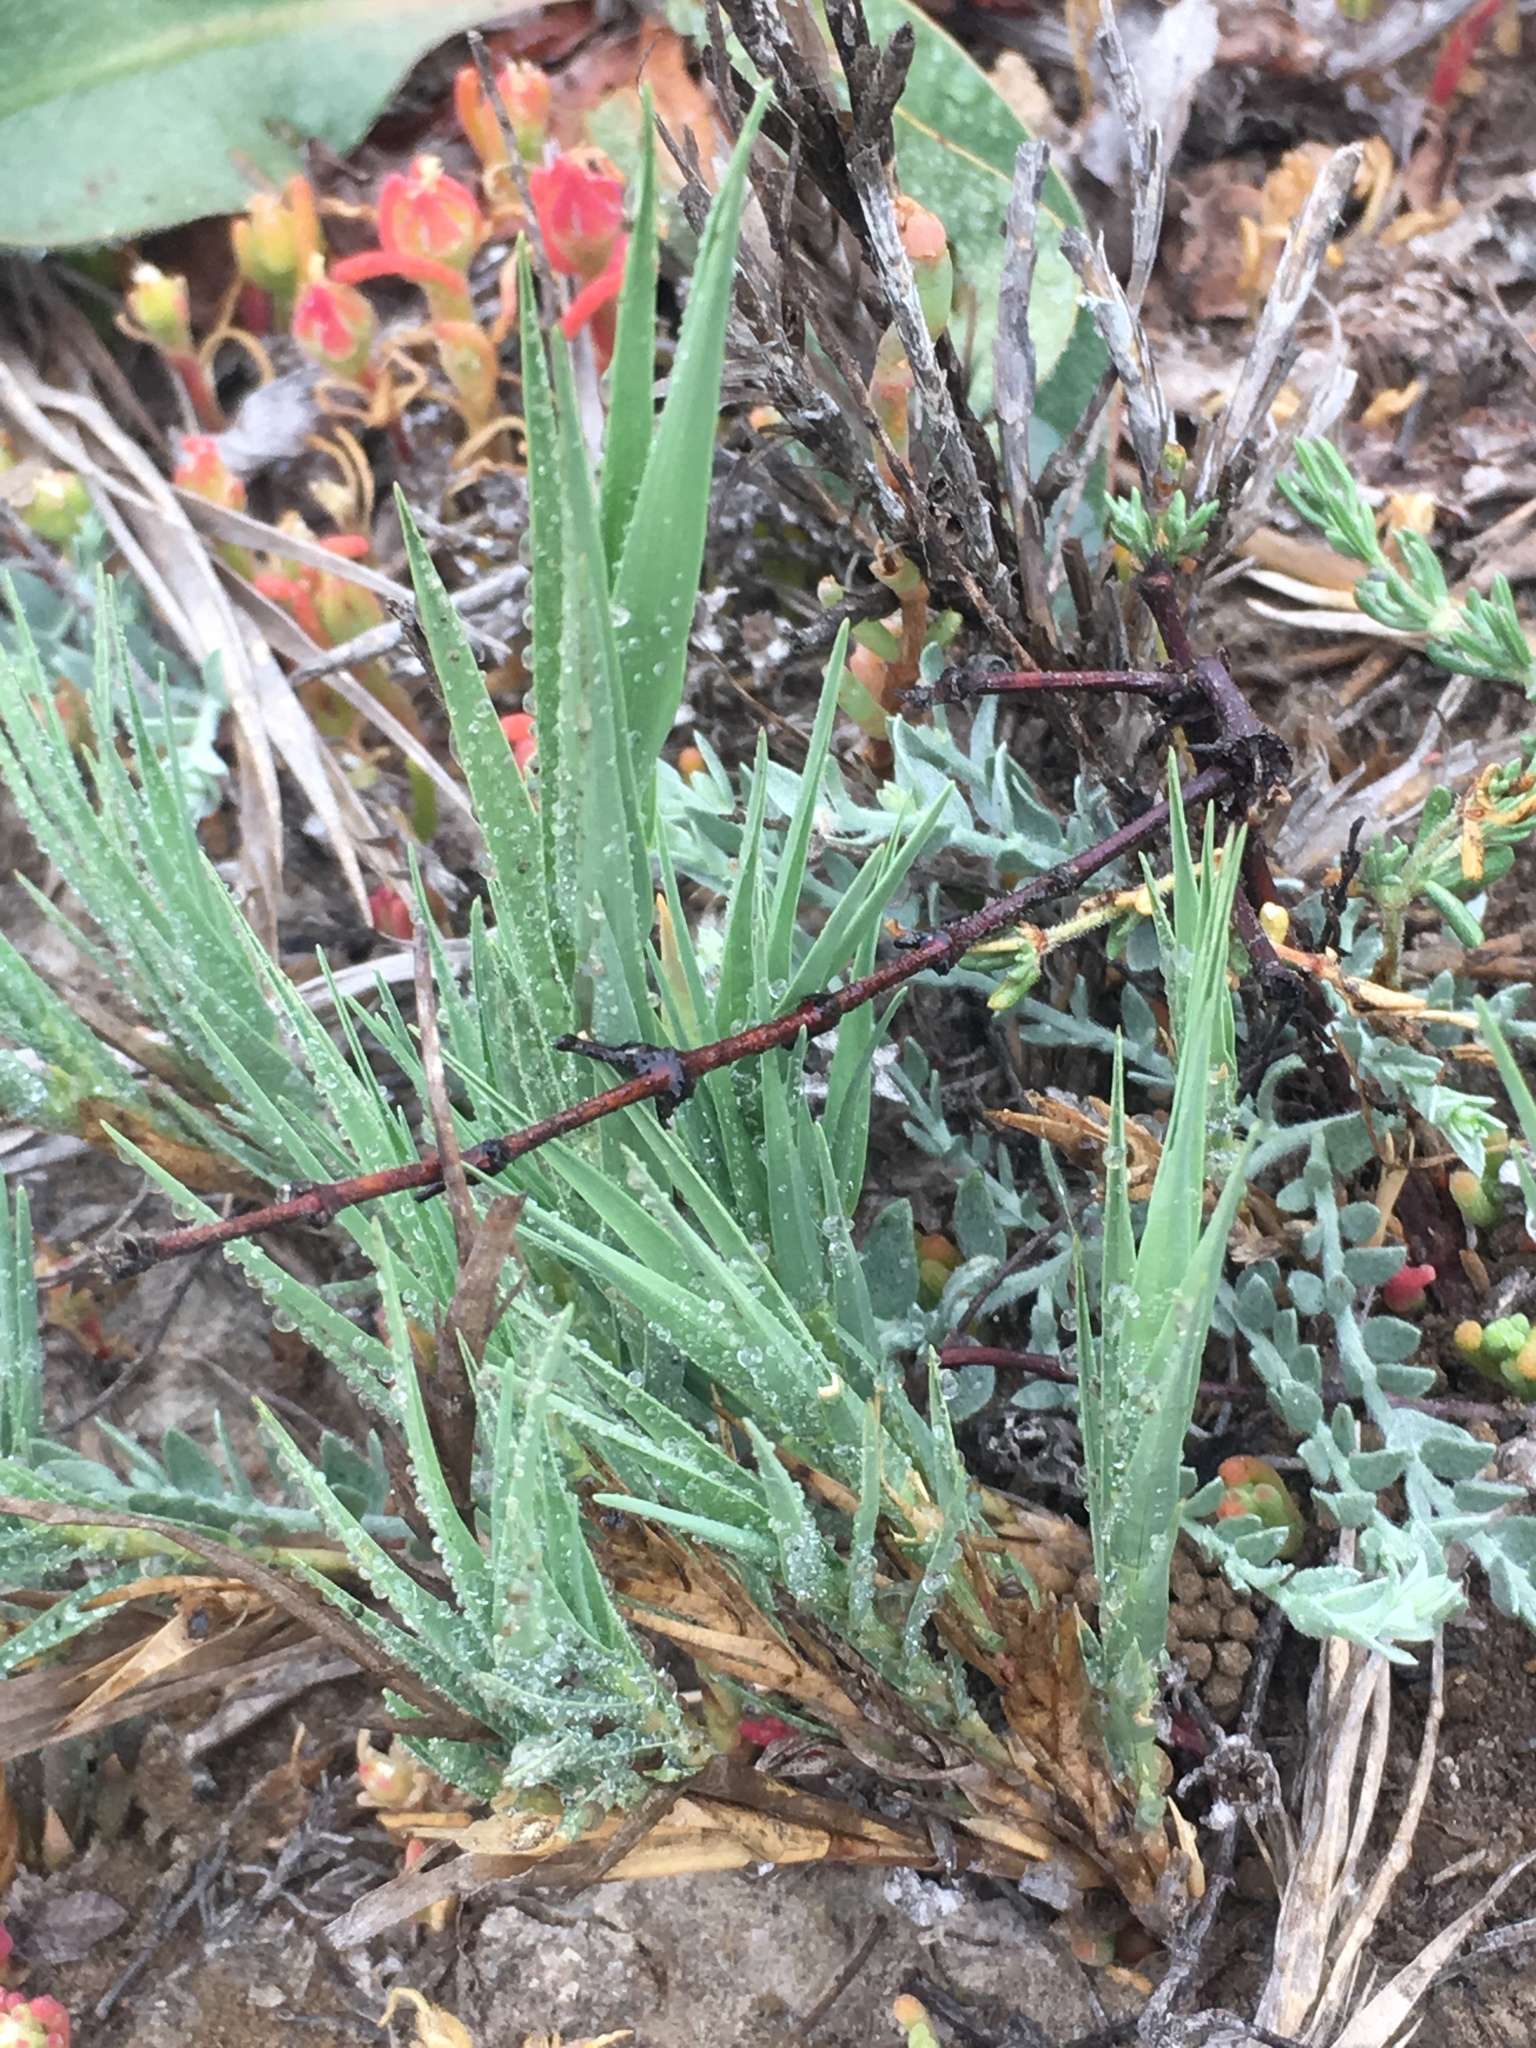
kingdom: Plantae
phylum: Tracheophyta
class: Liliopsida
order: Poales
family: Poaceae
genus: Distichlis
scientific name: Distichlis spicata
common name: Saltgrass
